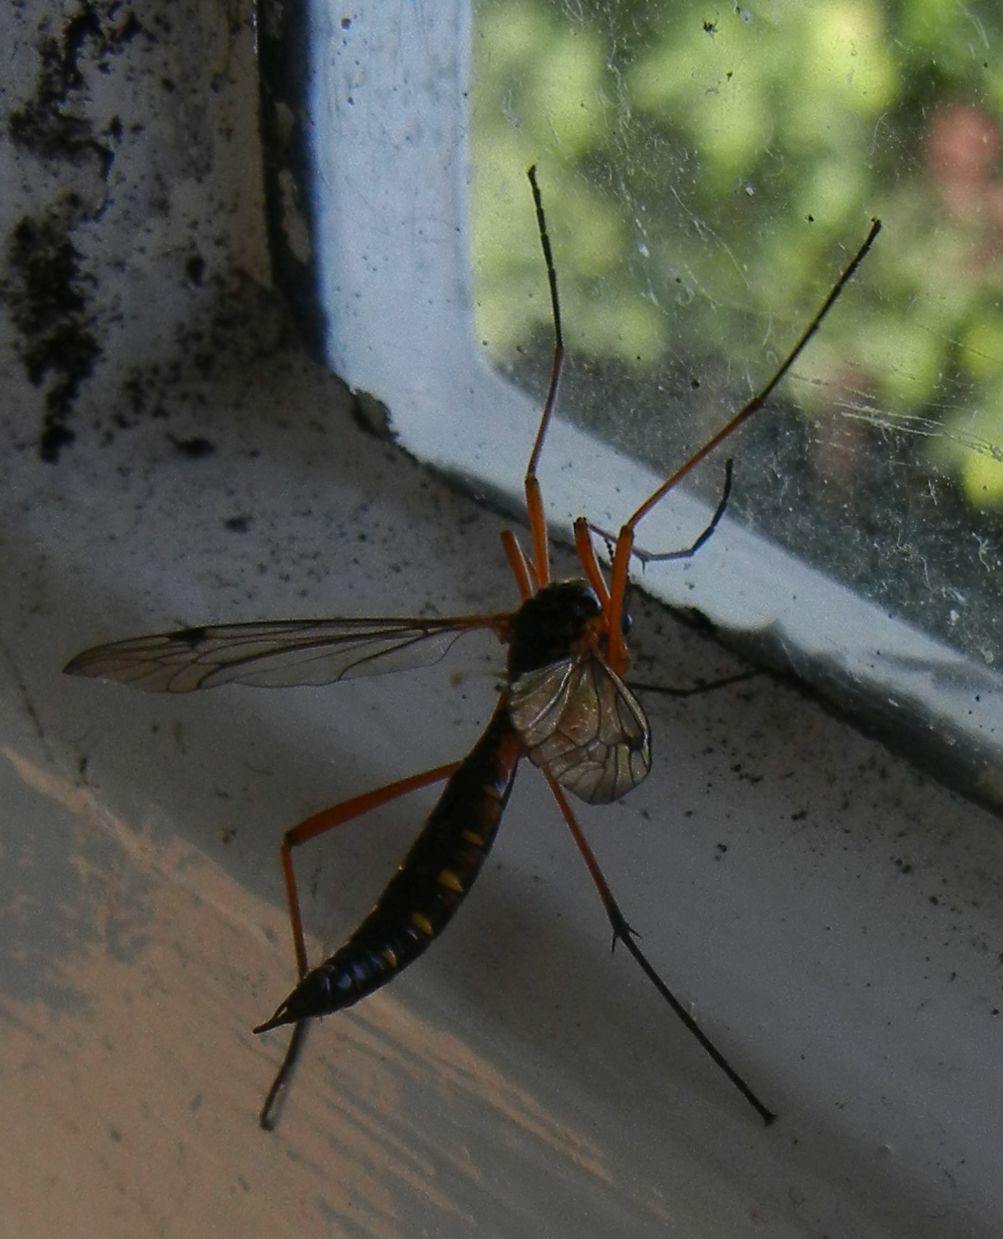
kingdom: Animalia
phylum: Arthropoda
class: Insecta
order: Diptera
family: Tipulidae
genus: Ctenophora
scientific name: Ctenophora pectinicornis
